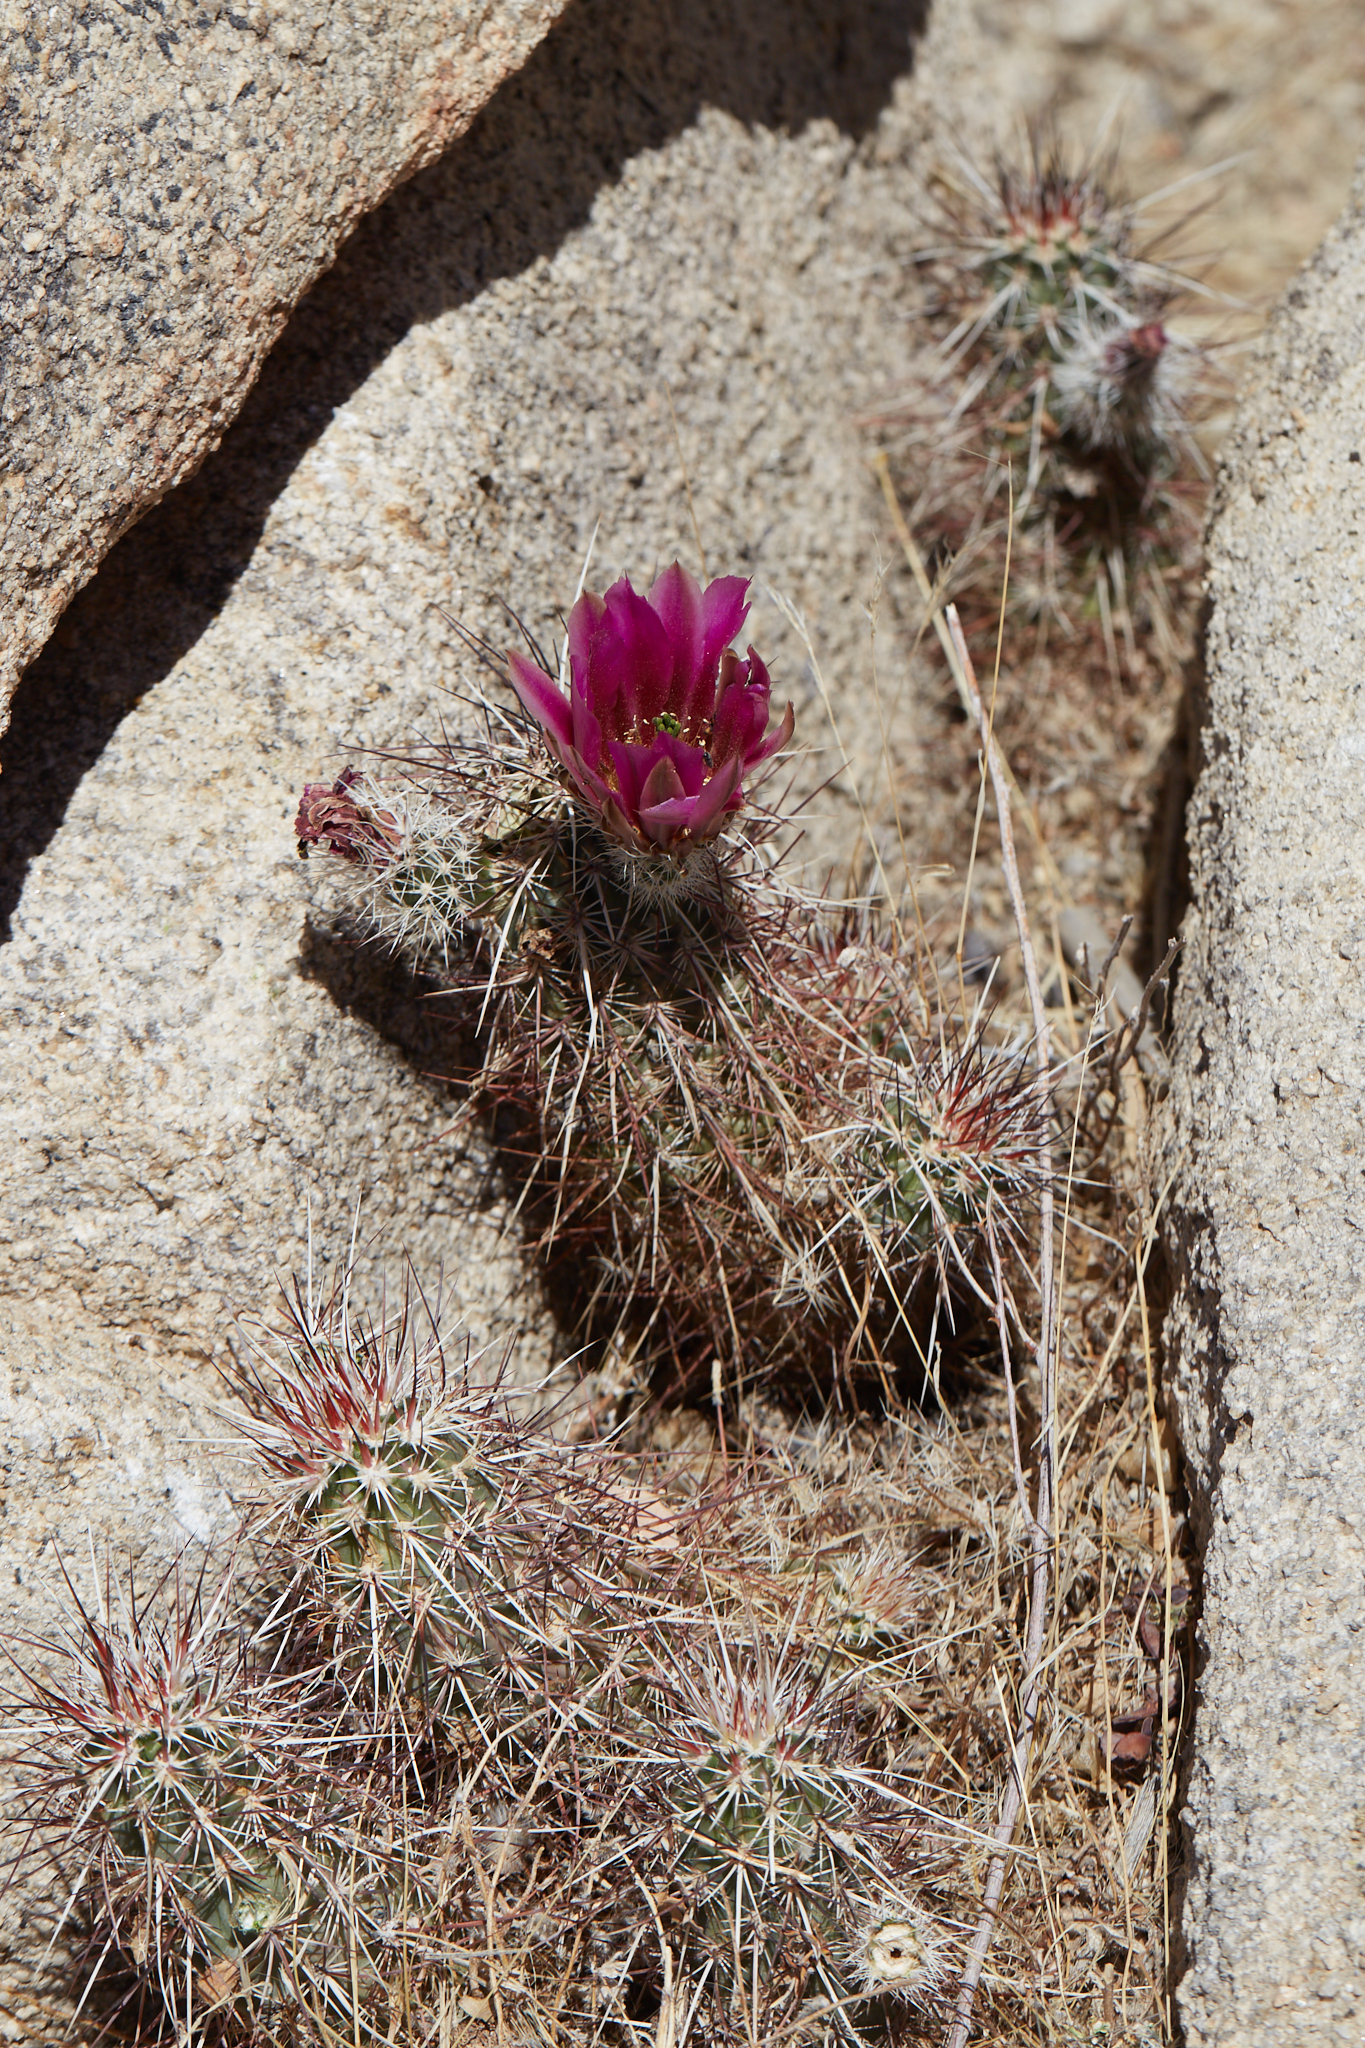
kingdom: Plantae
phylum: Tracheophyta
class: Magnoliopsida
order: Caryophyllales
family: Cactaceae
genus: Echinocereus
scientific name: Echinocereus engelmannii
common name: Engelmann's hedgehog cactus
